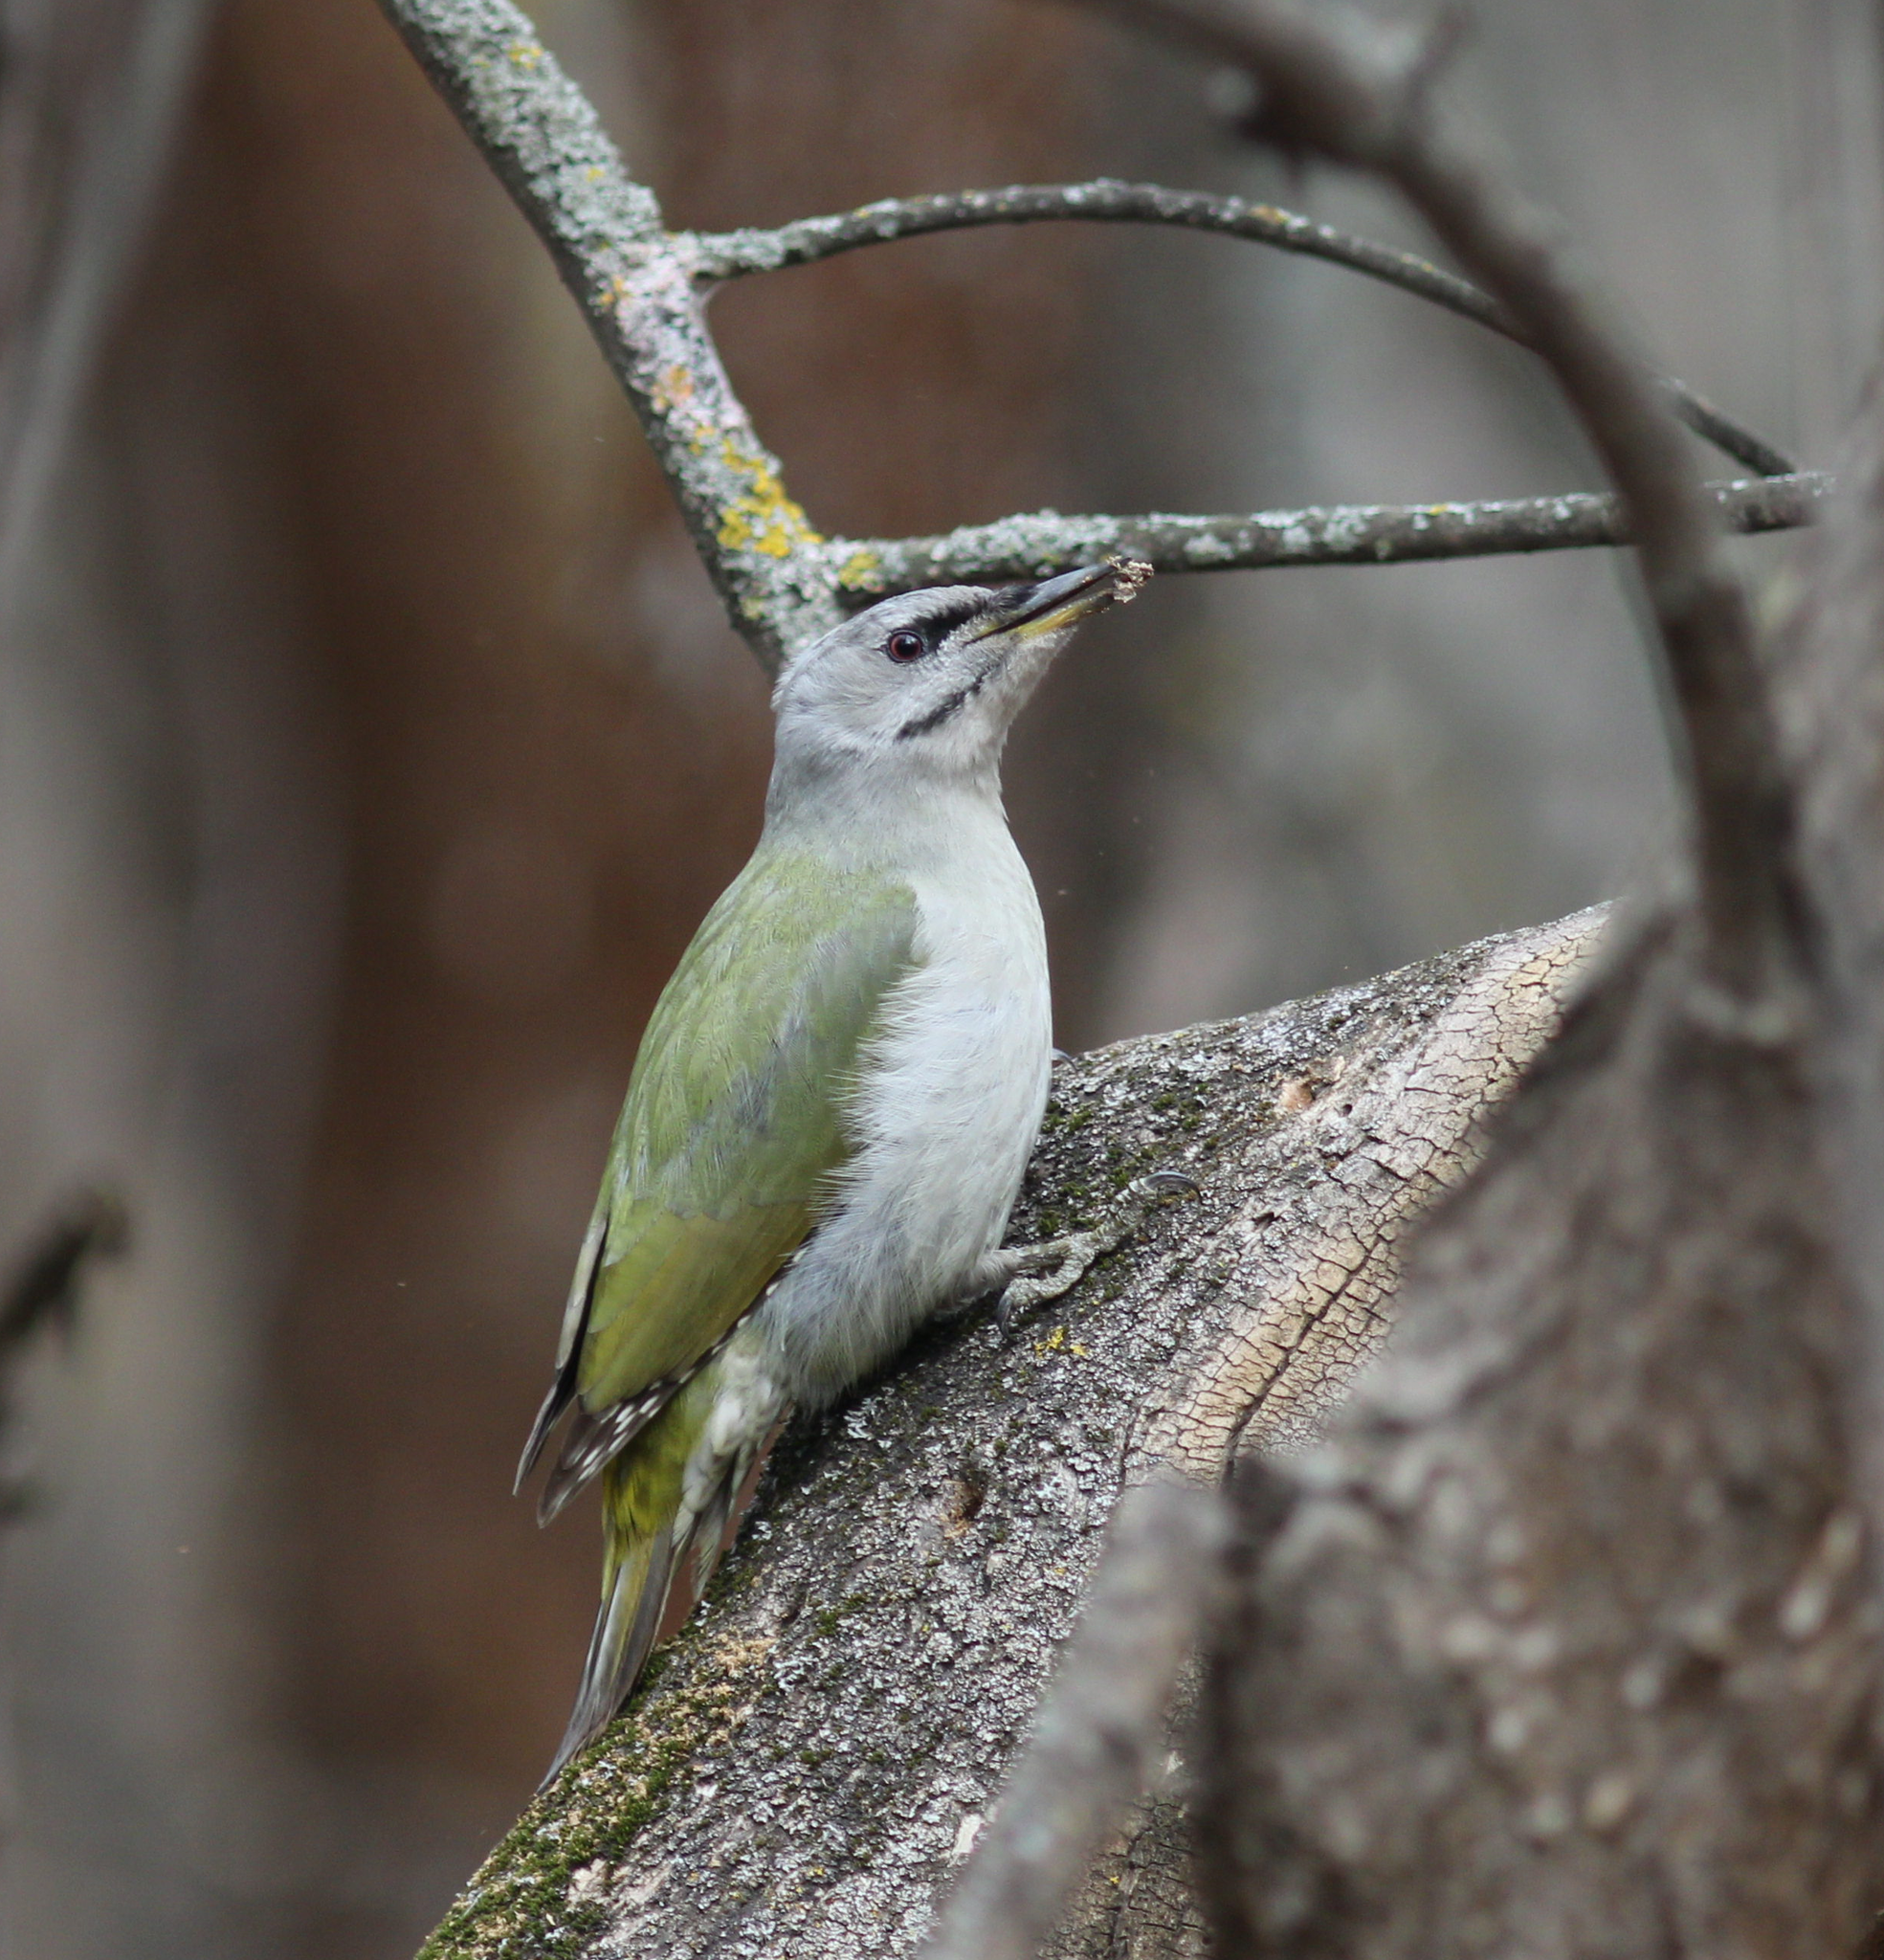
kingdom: Animalia
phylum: Chordata
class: Aves
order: Piciformes
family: Picidae
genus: Picus
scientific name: Picus canus
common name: Grey-headed woodpecker
